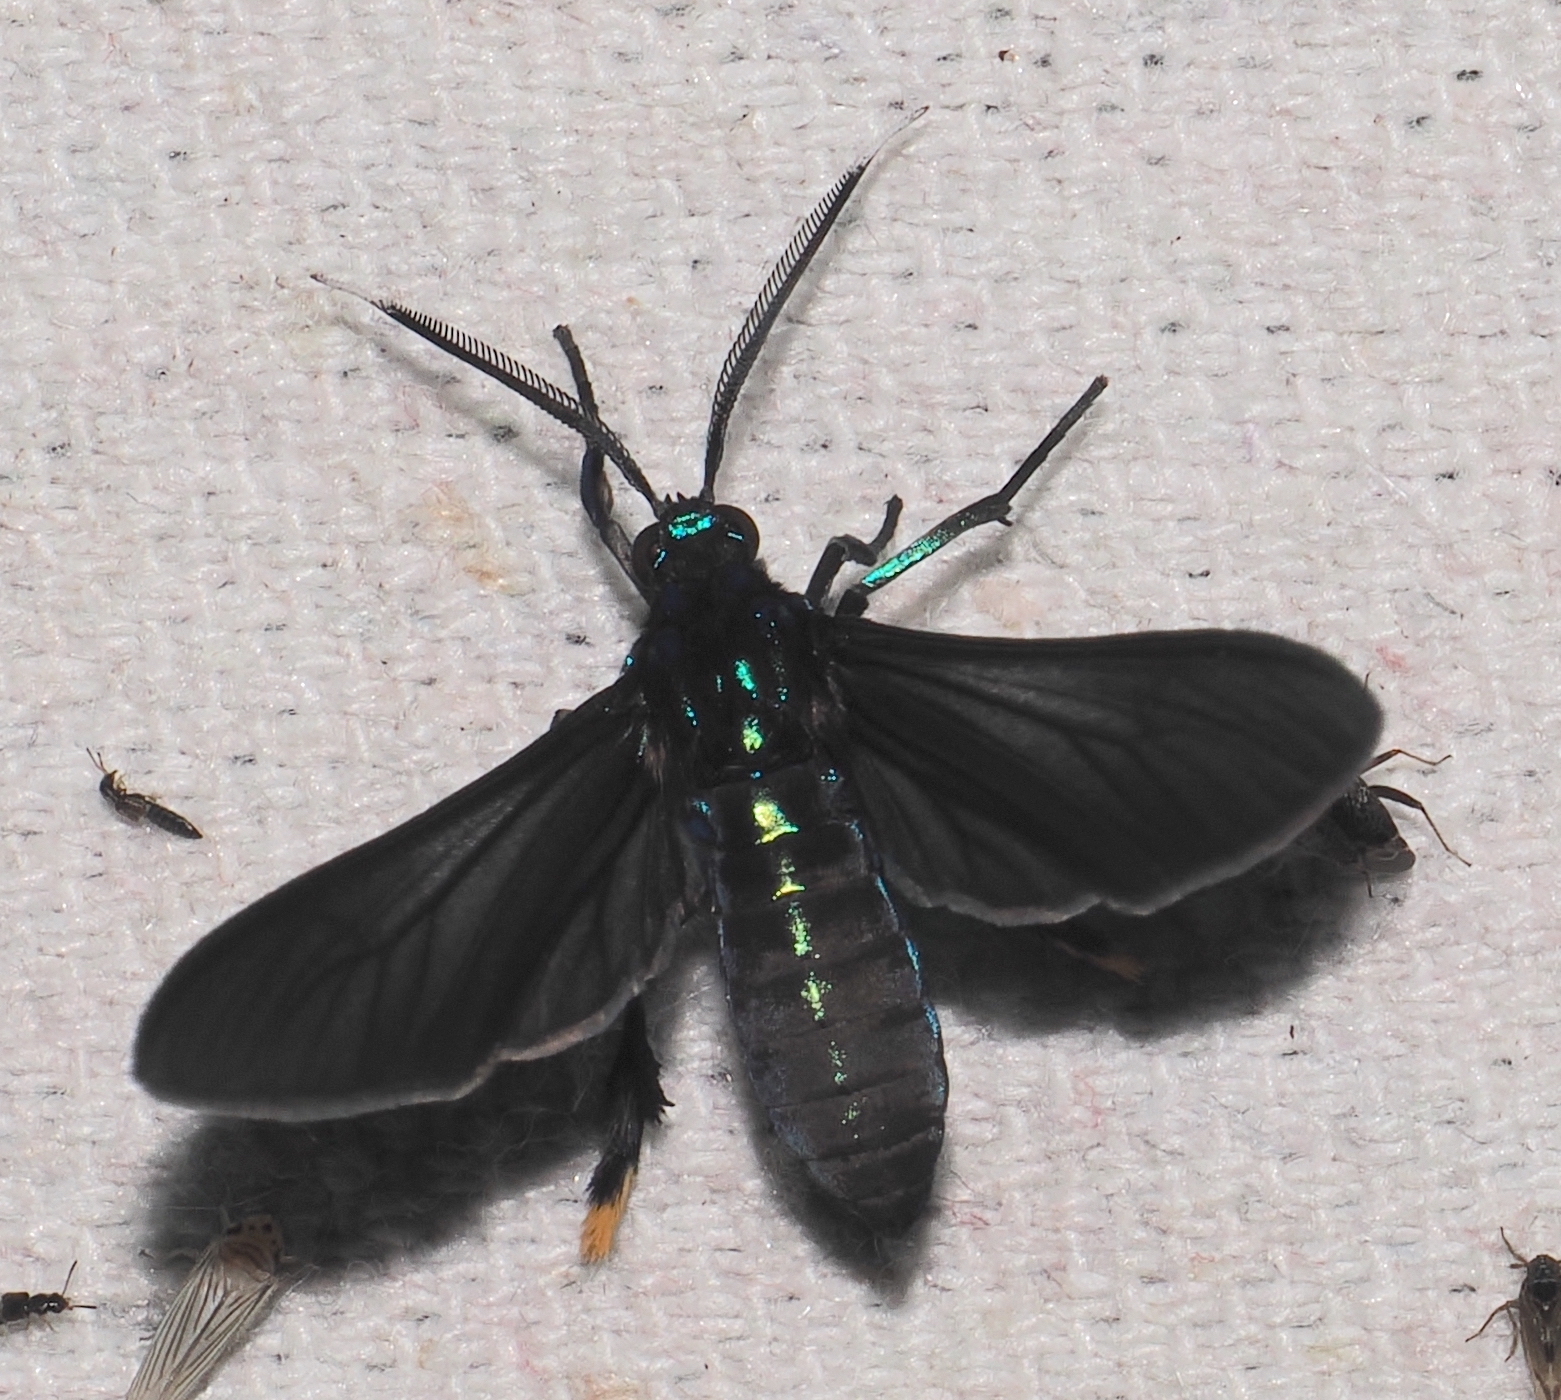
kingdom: Animalia
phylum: Arthropoda
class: Insecta
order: Lepidoptera
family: Erebidae
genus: Poliopastea
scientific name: Poliopastea auripes
